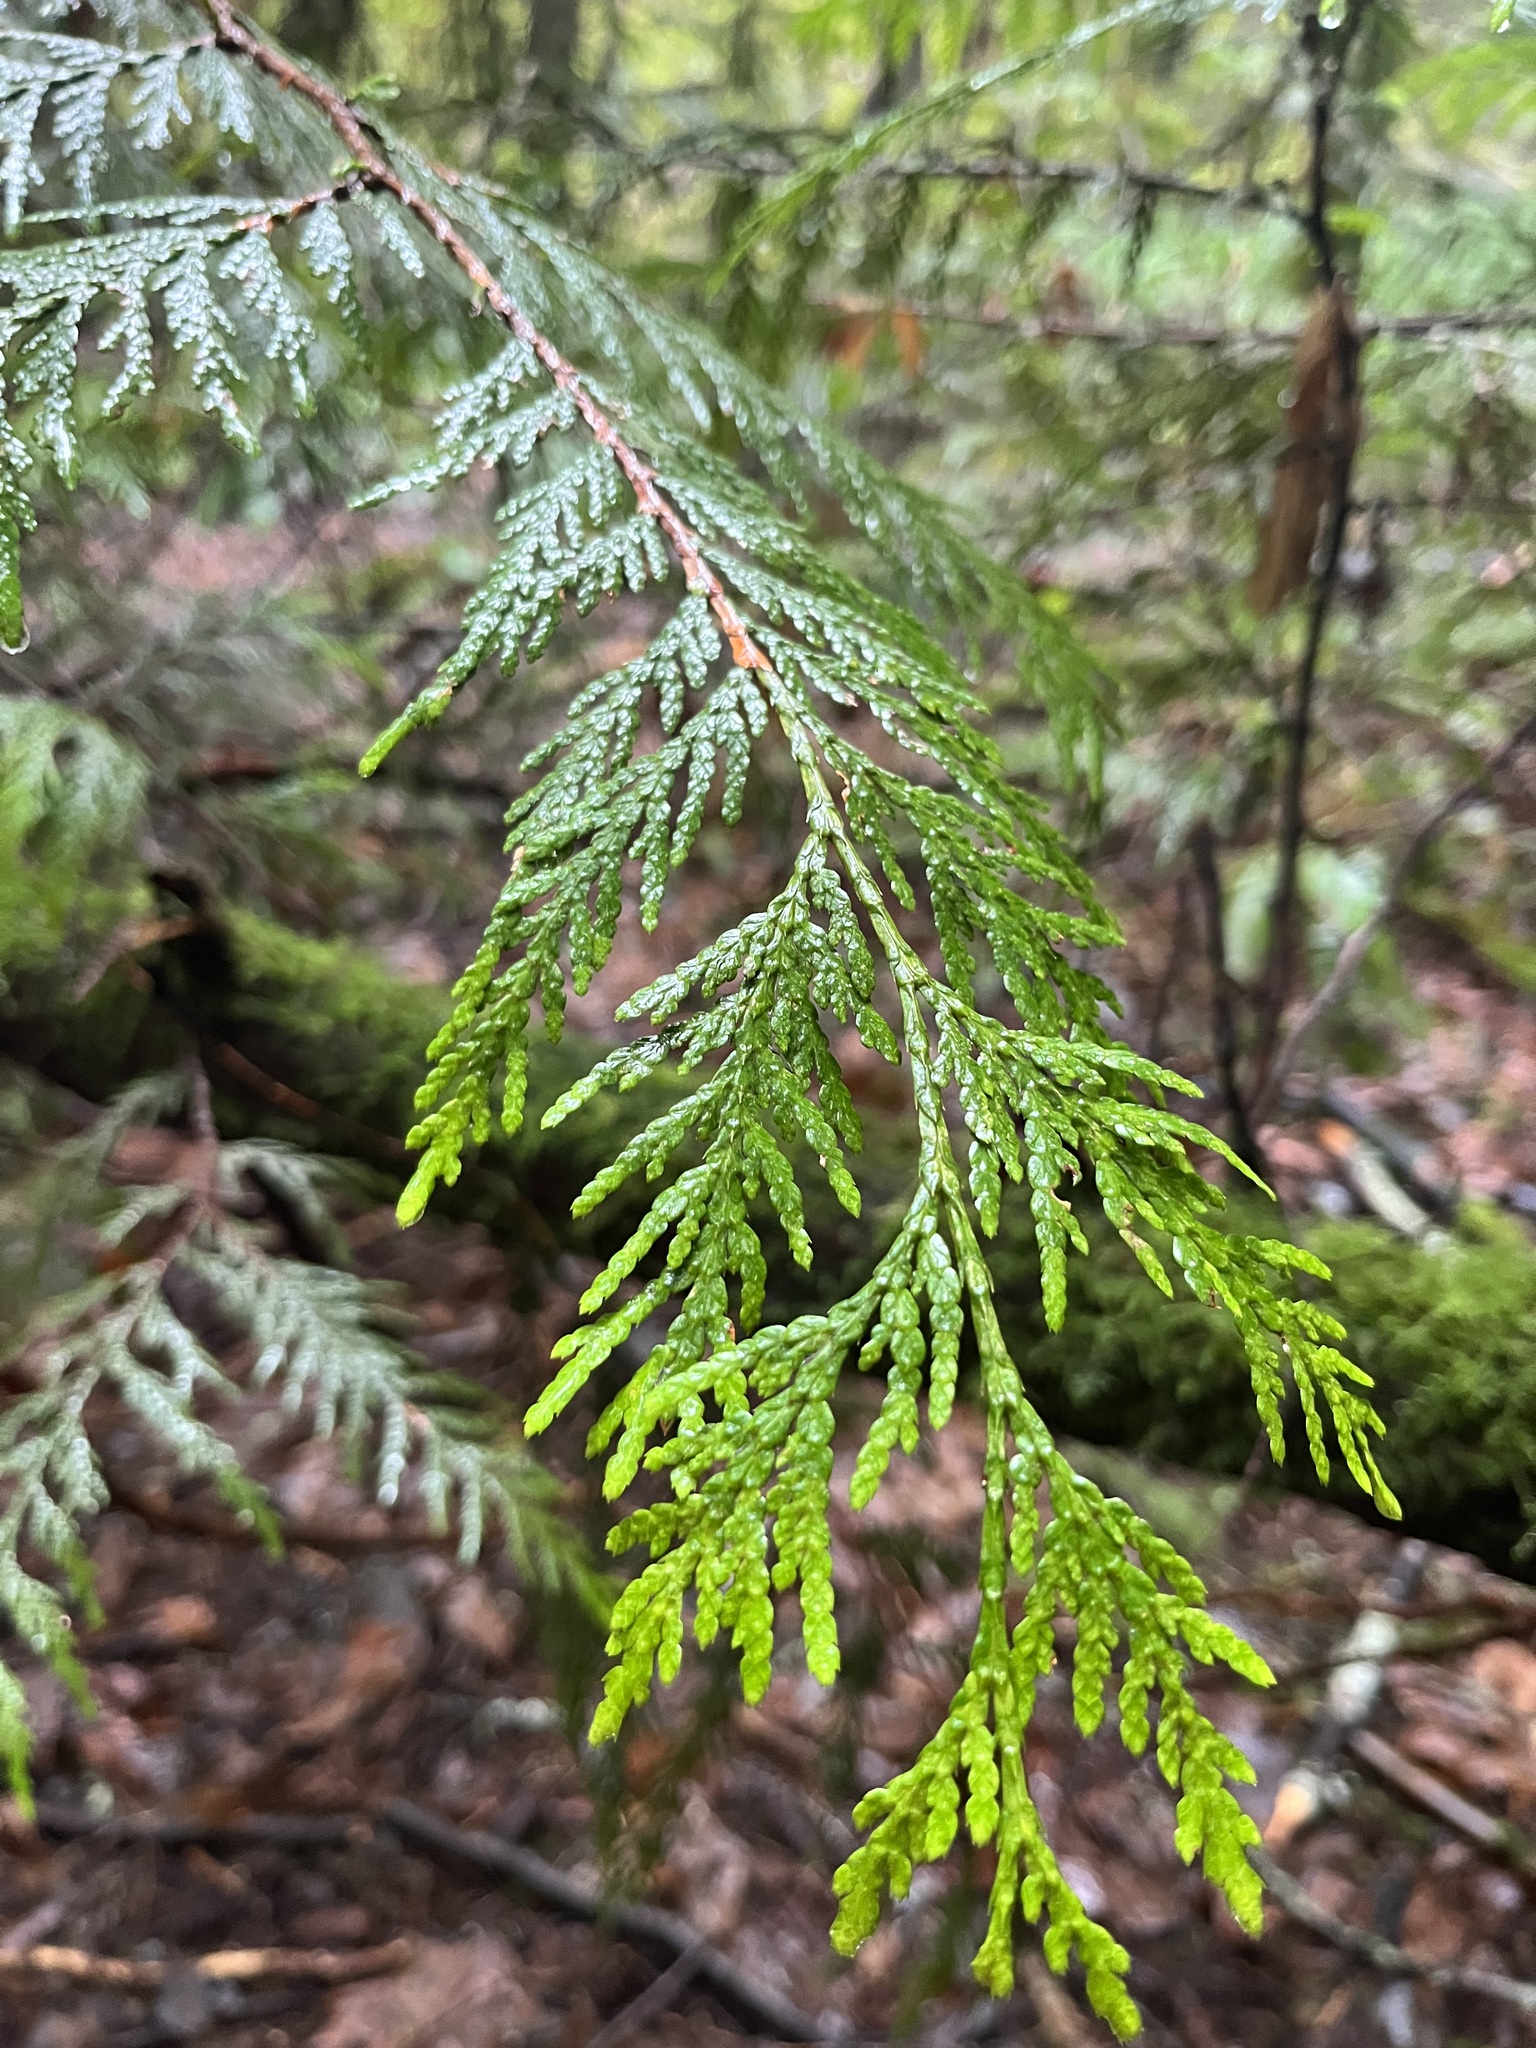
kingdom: Plantae
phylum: Tracheophyta
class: Pinopsida
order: Pinales
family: Cupressaceae
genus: Thuja
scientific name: Thuja plicata
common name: Western red-cedar
